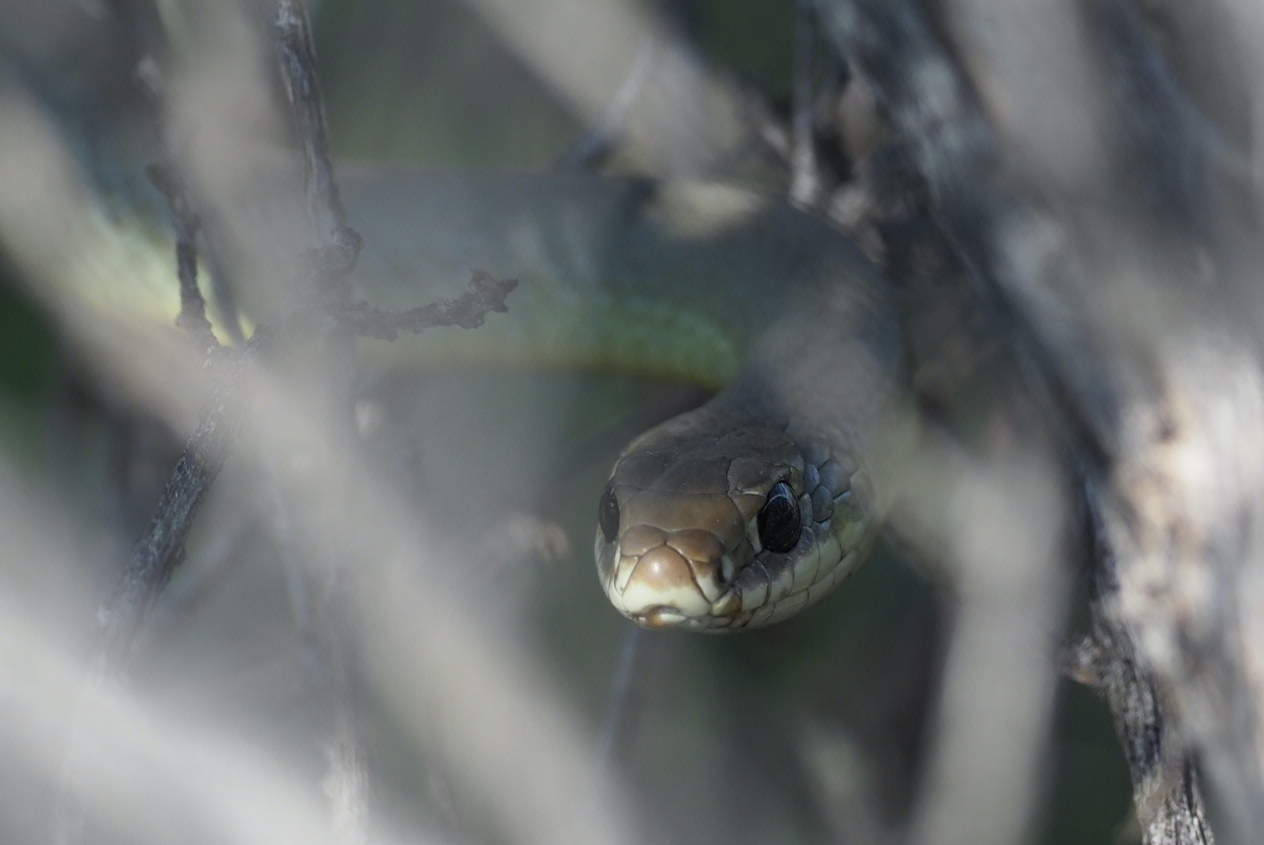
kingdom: Animalia
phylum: Chordata
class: Squamata
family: Colubridae
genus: Coluber
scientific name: Coluber constrictor
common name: Eastern racer
